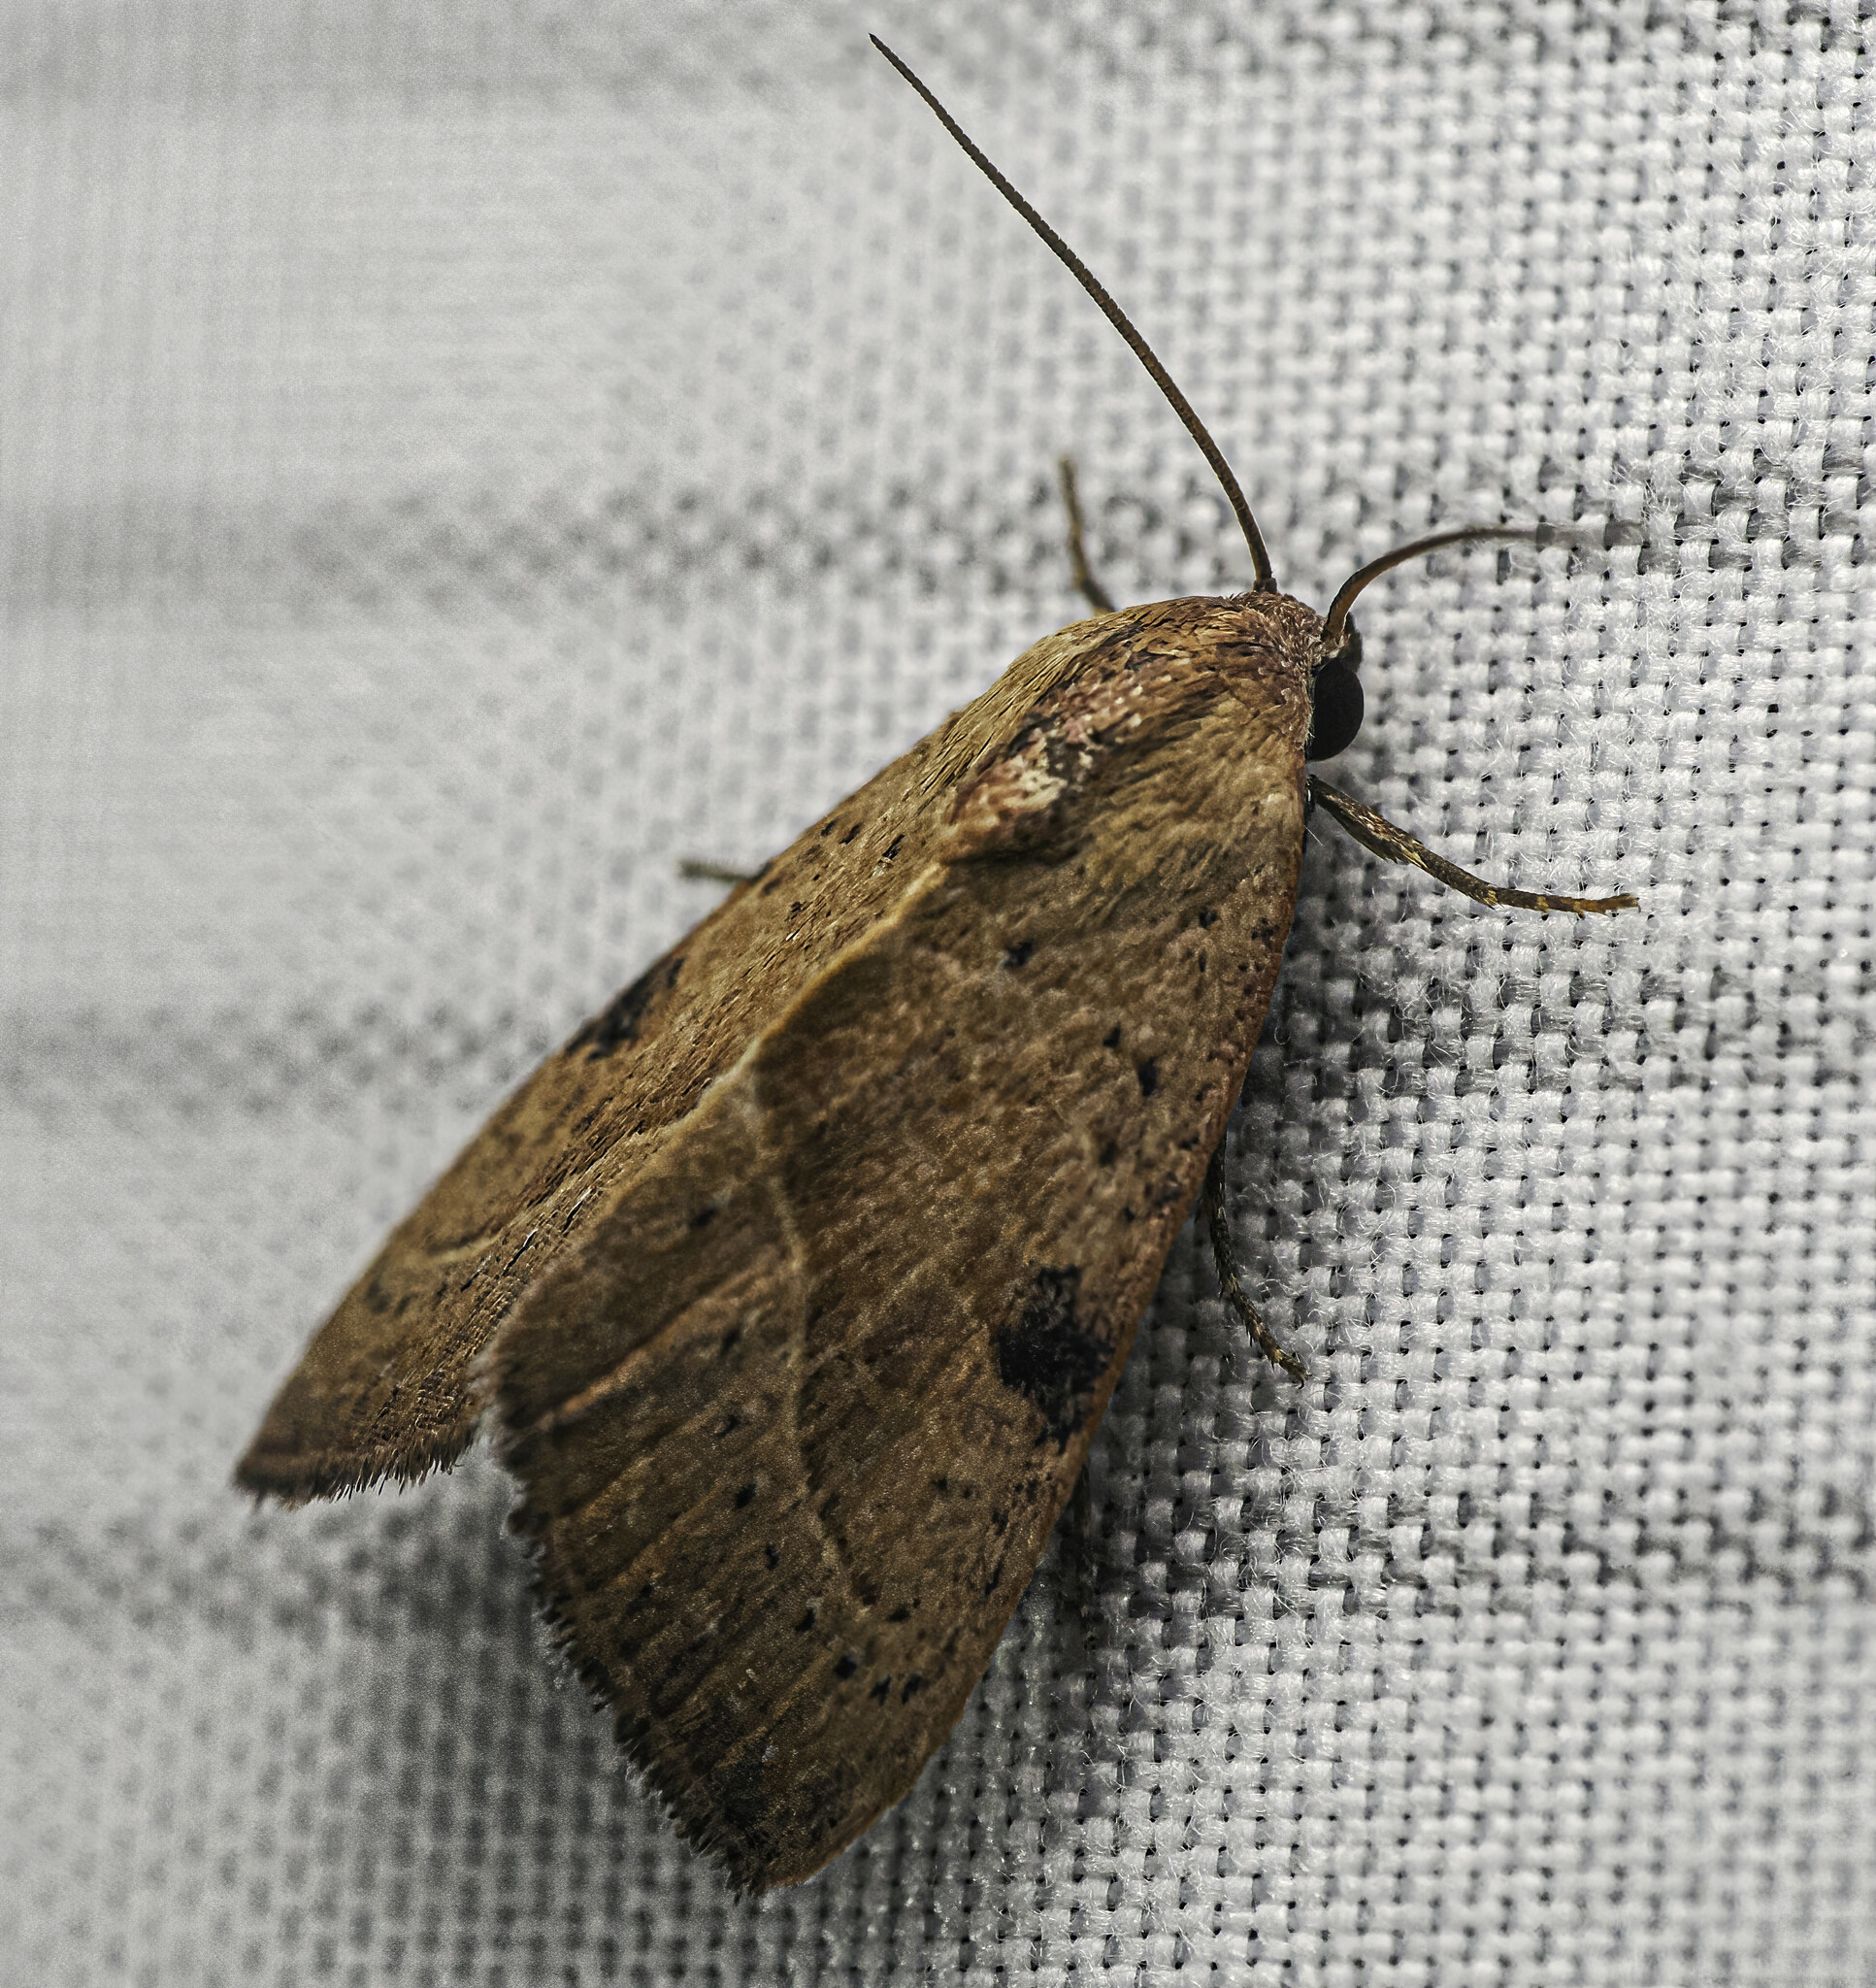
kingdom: Animalia
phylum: Arthropoda
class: Insecta
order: Lepidoptera
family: Noctuidae
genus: Galgula
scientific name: Galgula partita
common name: Wedgeling
